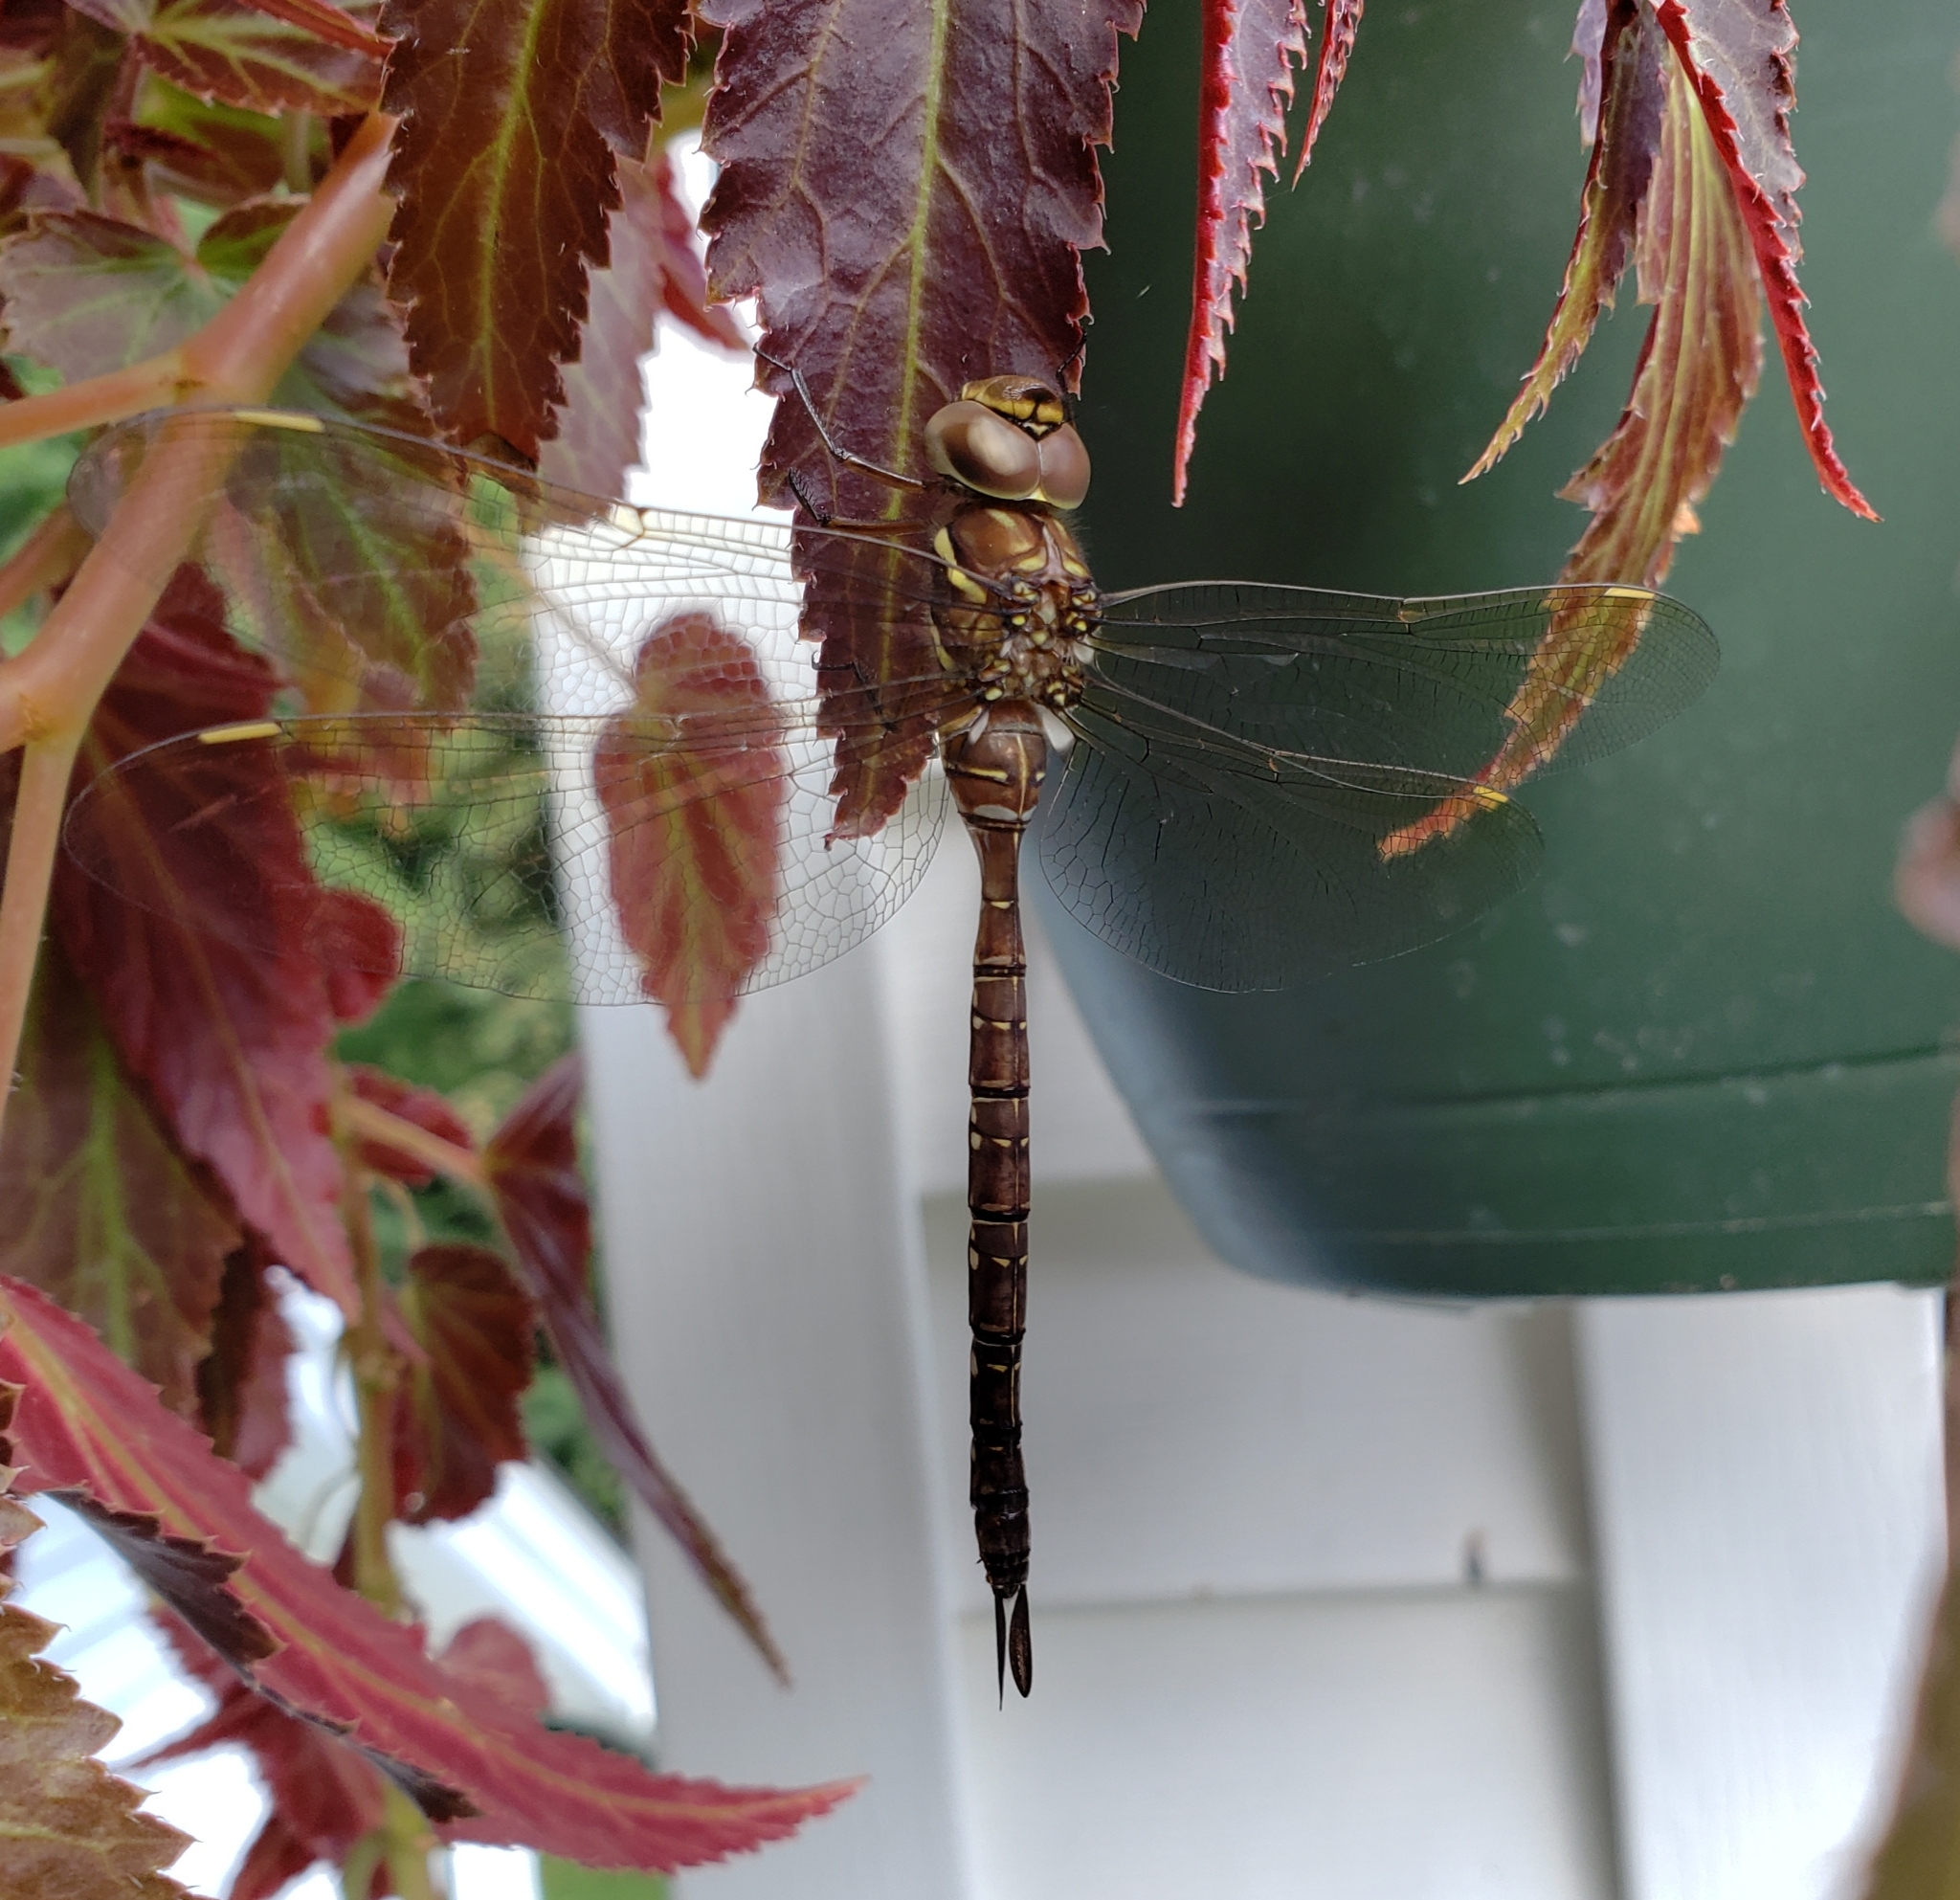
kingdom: Animalia
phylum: Arthropoda
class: Insecta
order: Odonata
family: Aeshnidae
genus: Aeshna
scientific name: Aeshna umbrosa
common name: Shadow darner
